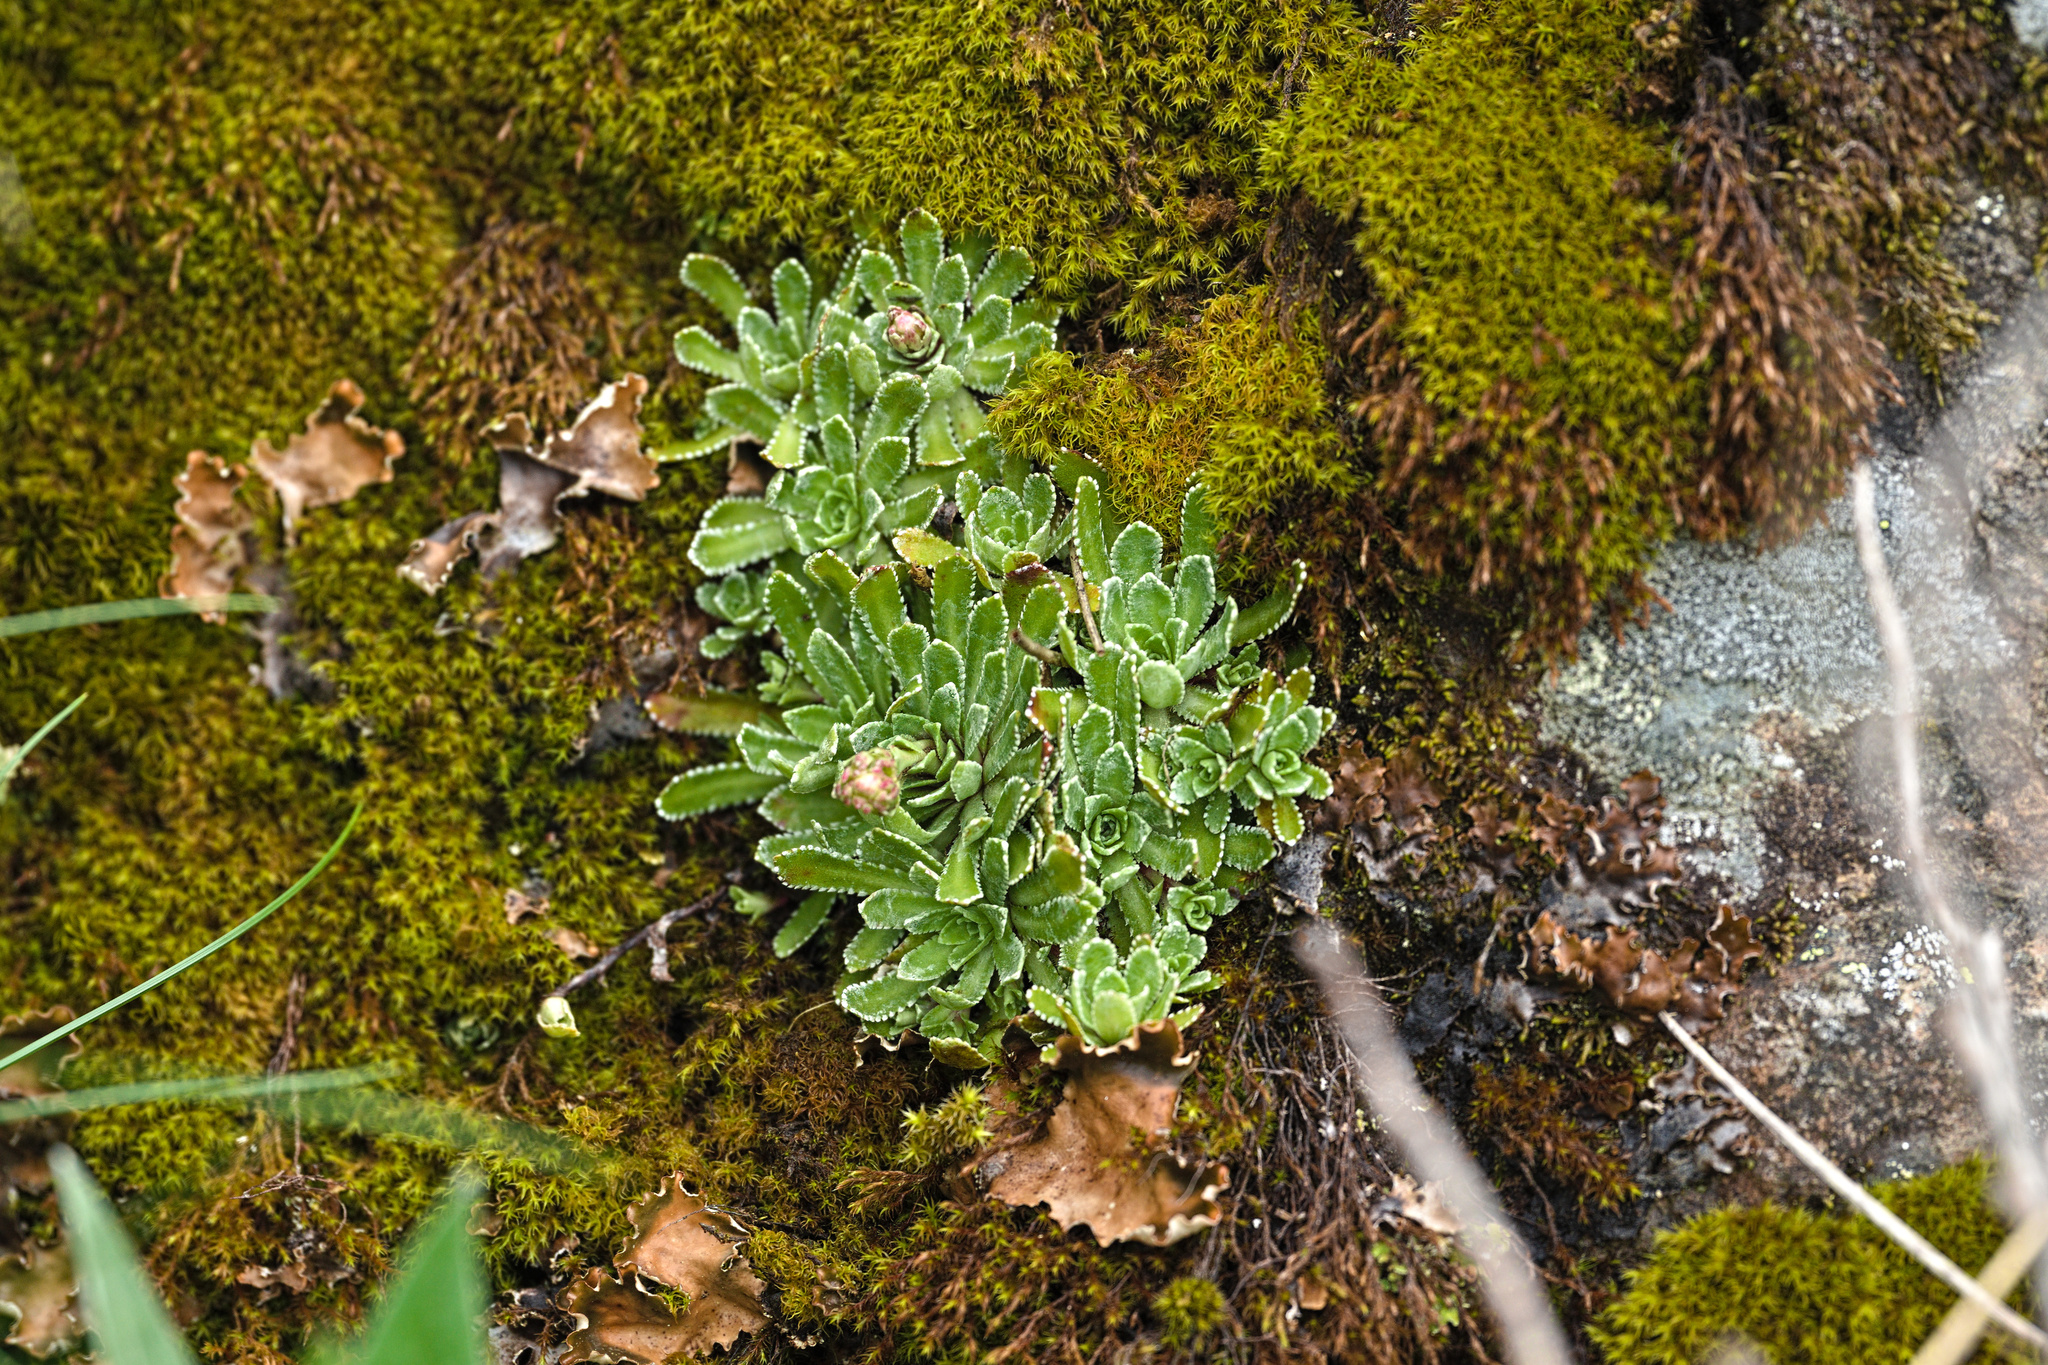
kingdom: Plantae
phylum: Tracheophyta
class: Magnoliopsida
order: Saxifragales
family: Saxifragaceae
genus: Saxifraga
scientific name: Saxifraga paniculata
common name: Livelong saxifrage
